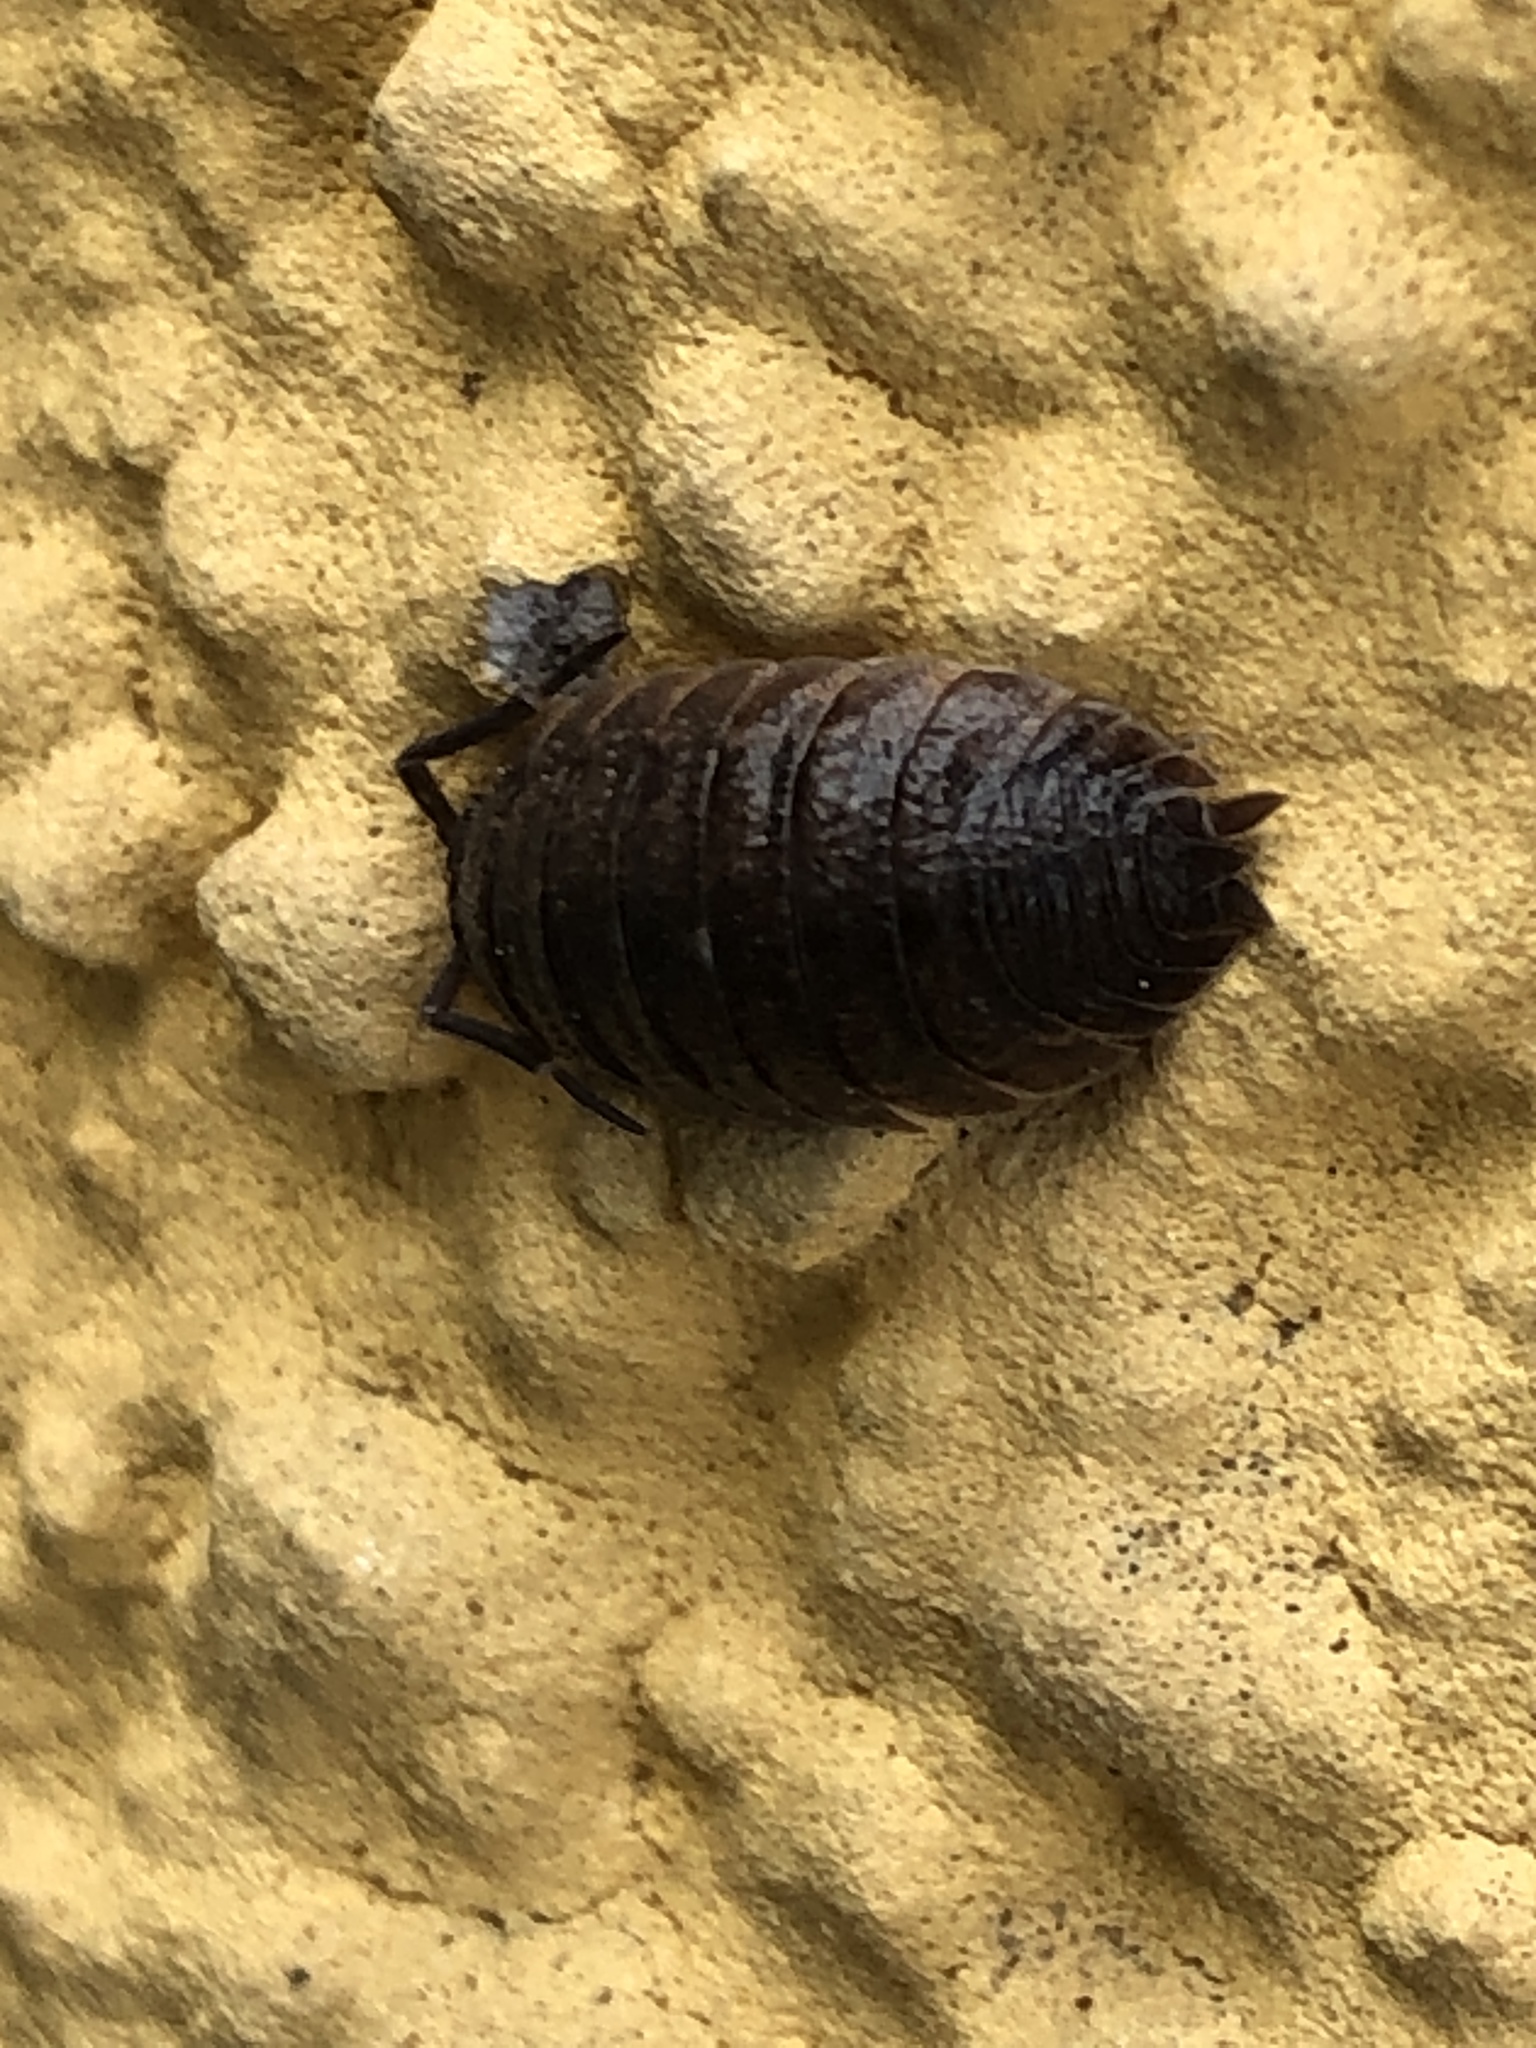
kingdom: Animalia
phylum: Arthropoda
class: Malacostraca
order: Isopoda
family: Porcellionidae
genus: Porcellio
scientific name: Porcellio scaber
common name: Common rough woodlouse
